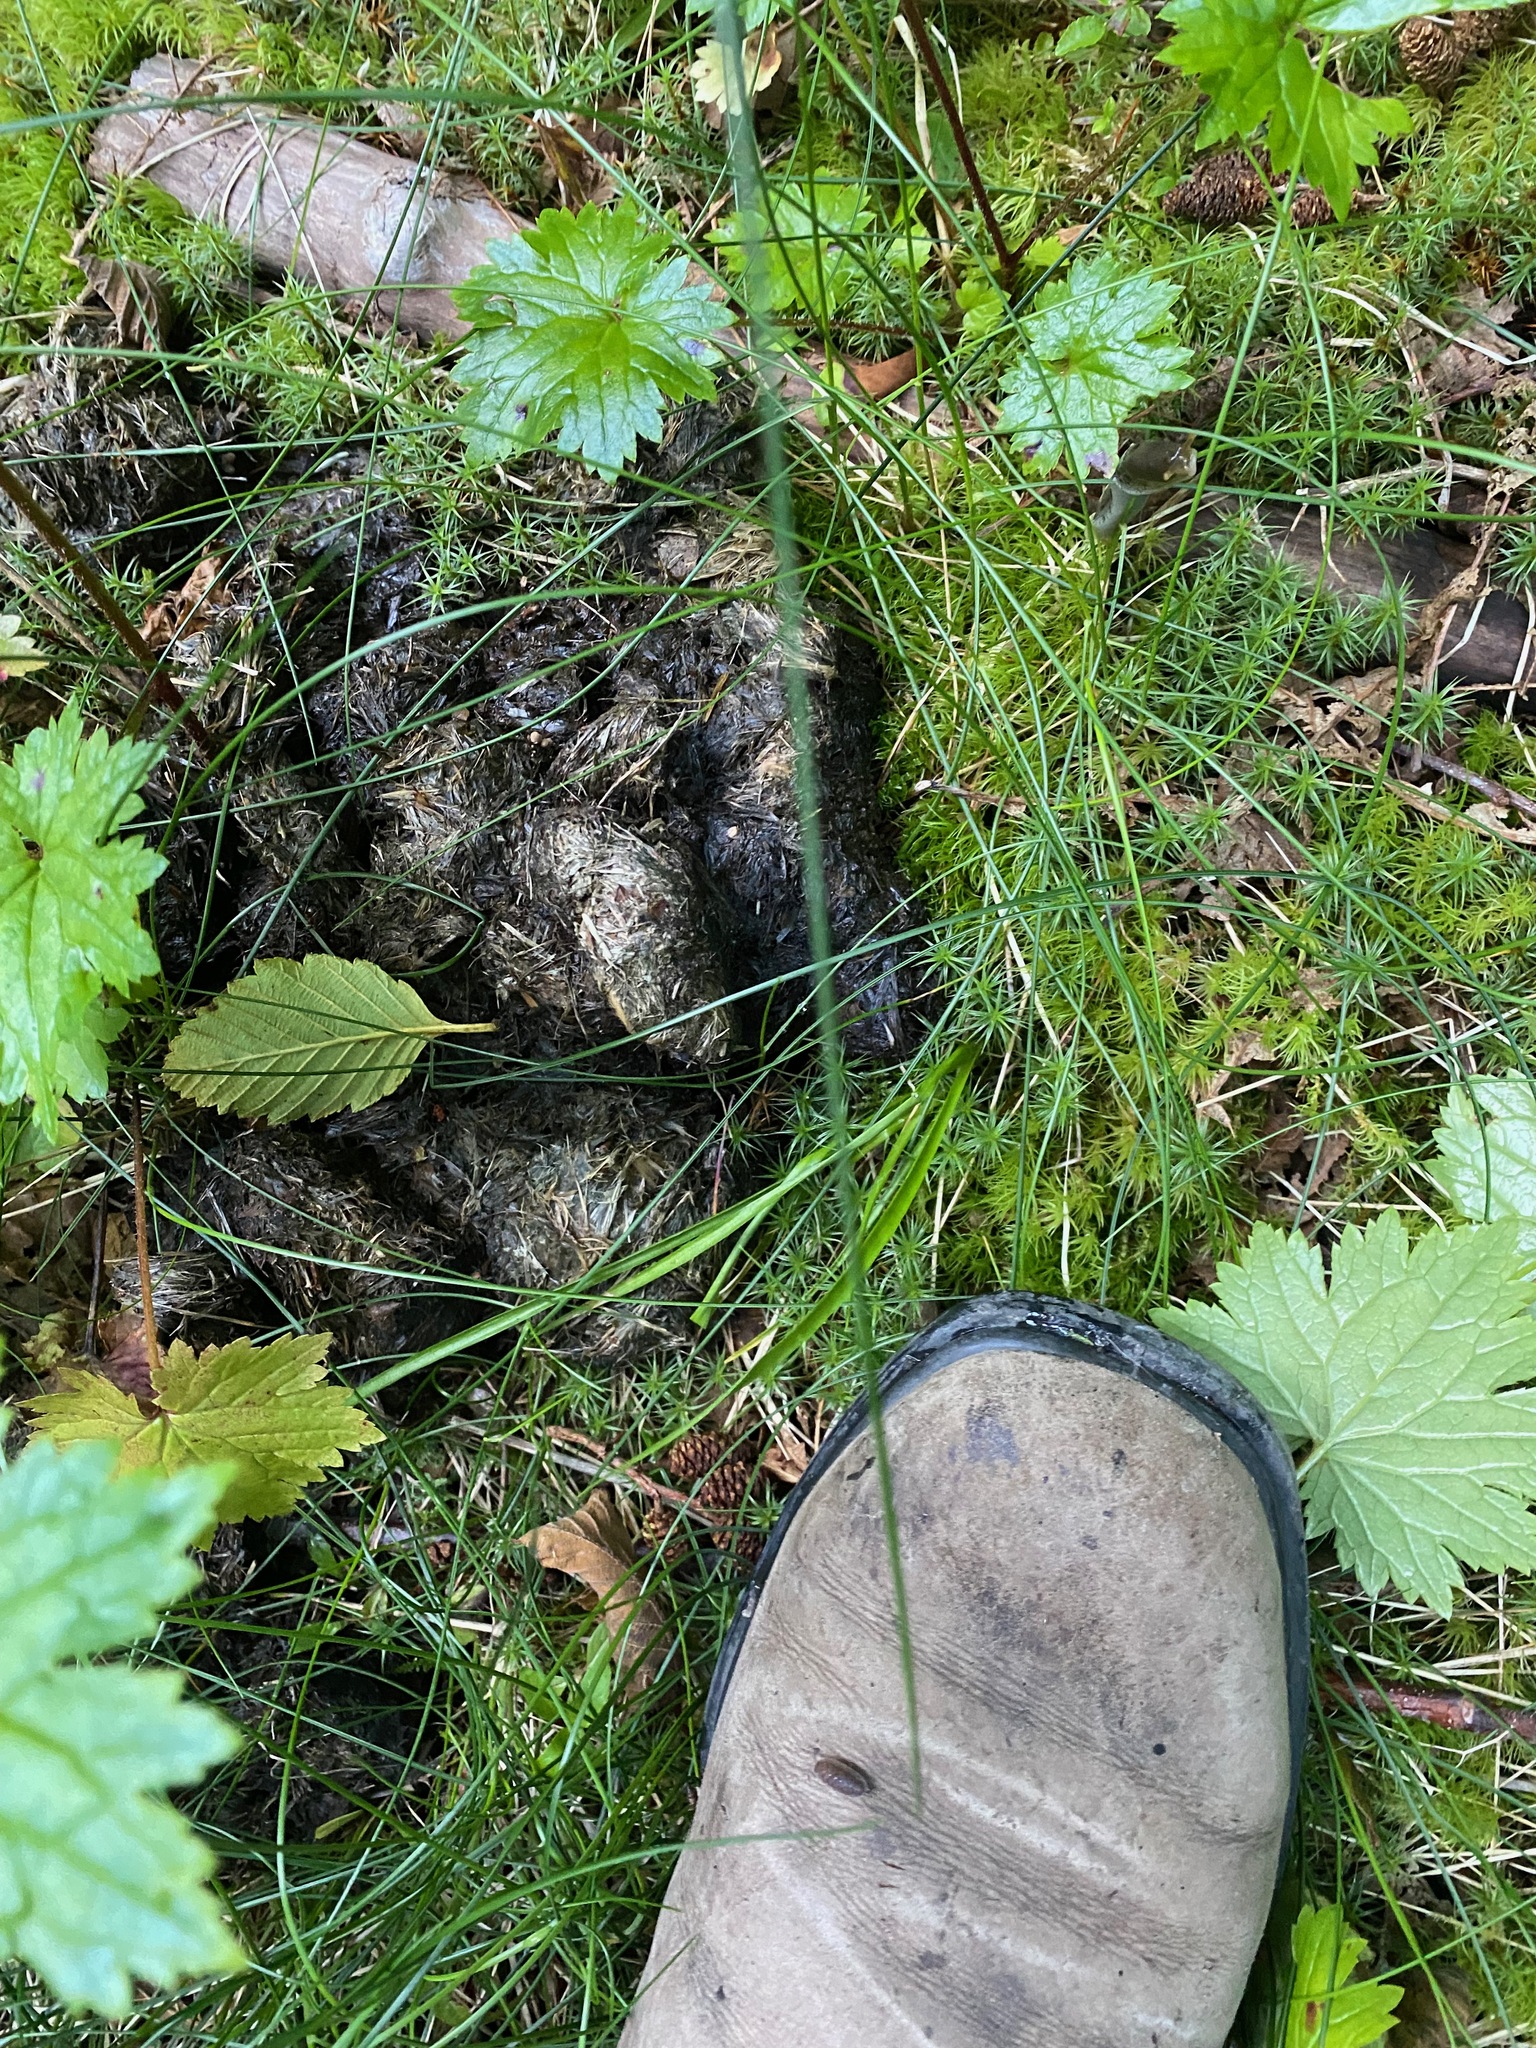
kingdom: Animalia
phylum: Chordata
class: Mammalia
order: Carnivora
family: Ursidae
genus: Ursus
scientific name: Ursus americanus
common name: American black bear
